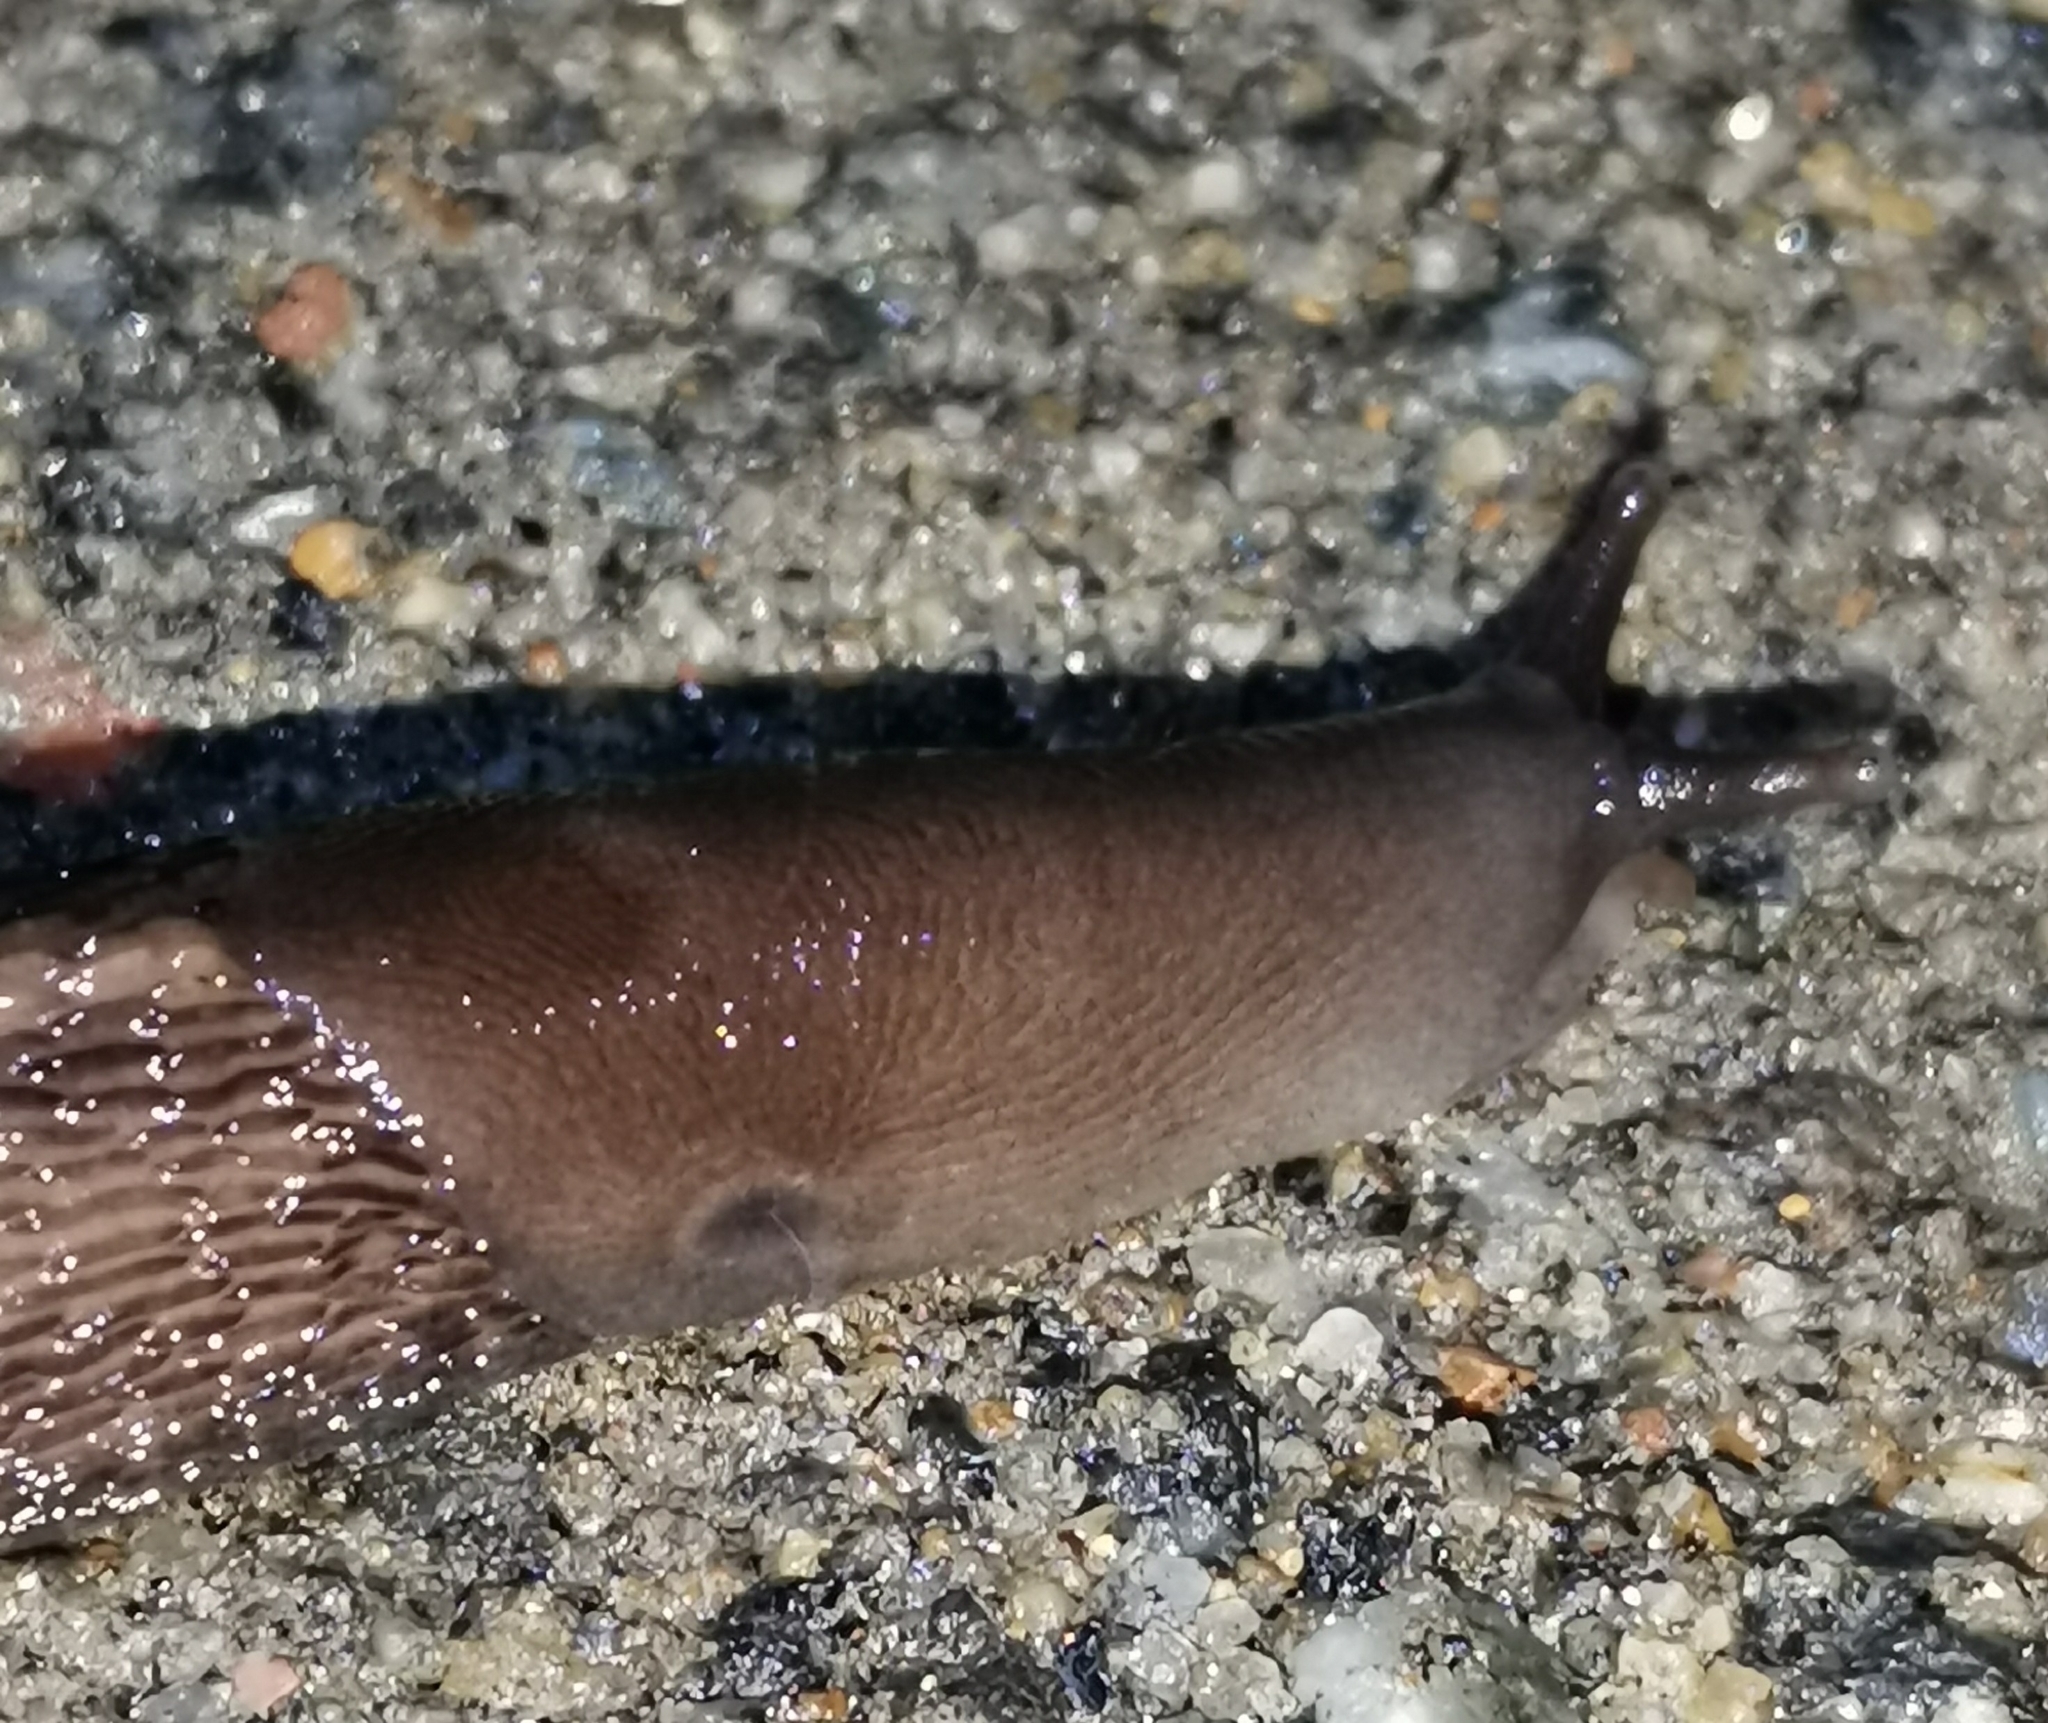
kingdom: Animalia
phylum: Mollusca
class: Gastropoda
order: Stylommatophora
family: Limacidae
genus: Limax
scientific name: Limax cinereoniger
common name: Ash-black slug
